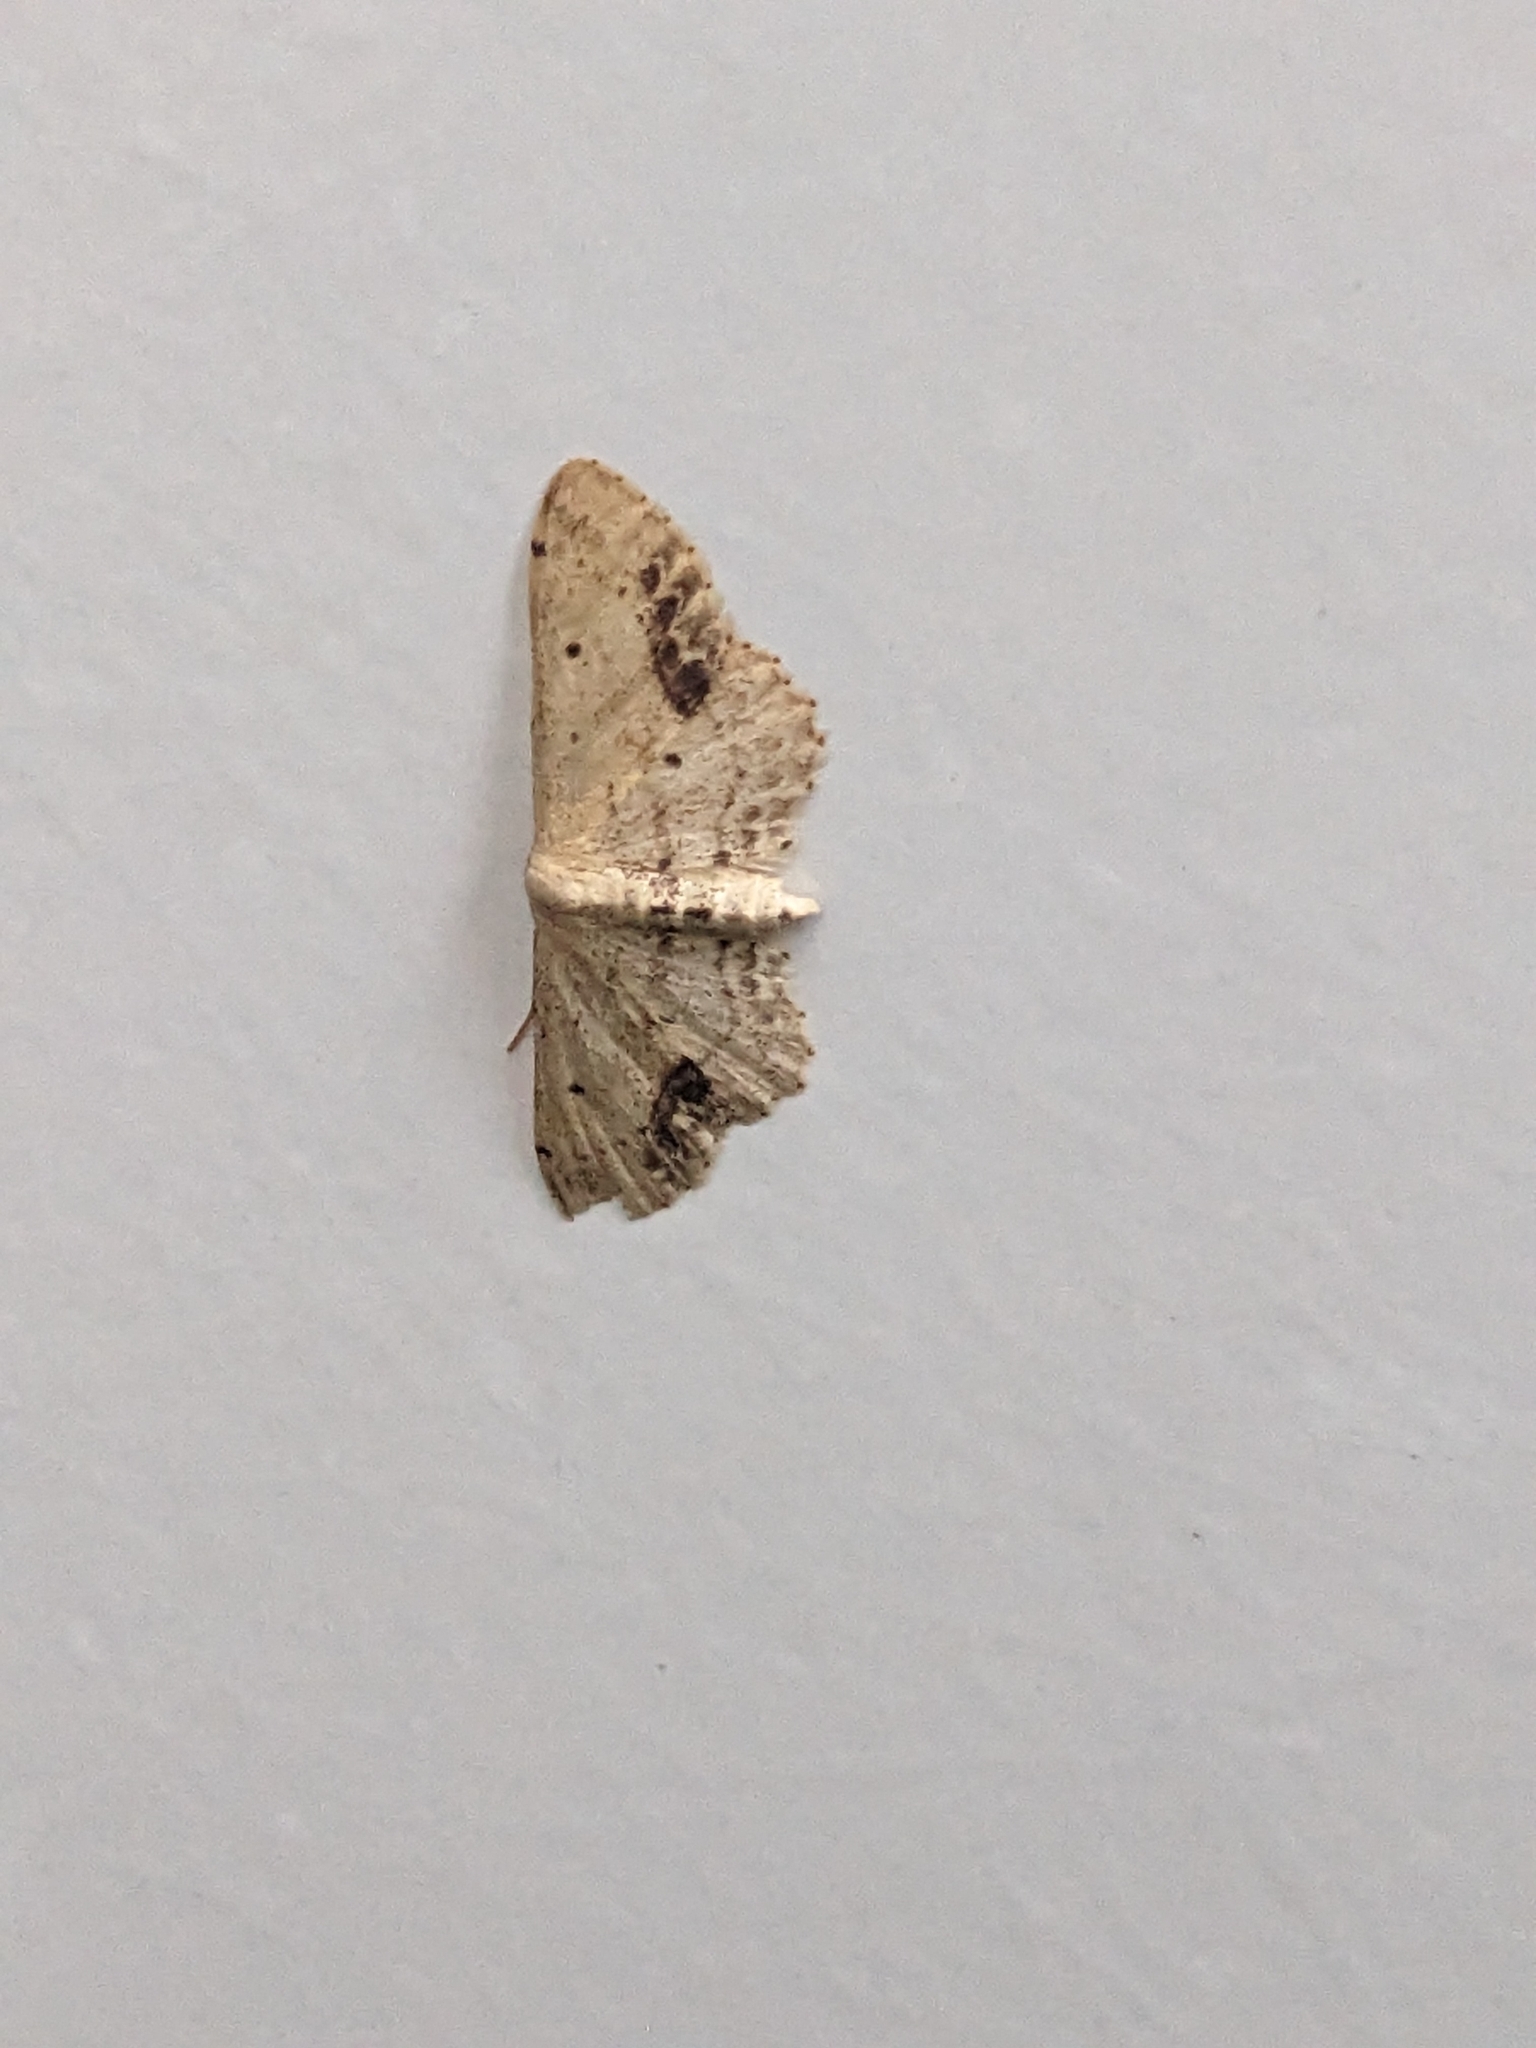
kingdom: Animalia
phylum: Arthropoda
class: Insecta
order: Lepidoptera
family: Geometridae
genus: Idaea
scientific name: Idaea dimidiata
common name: Single-dotted wave
